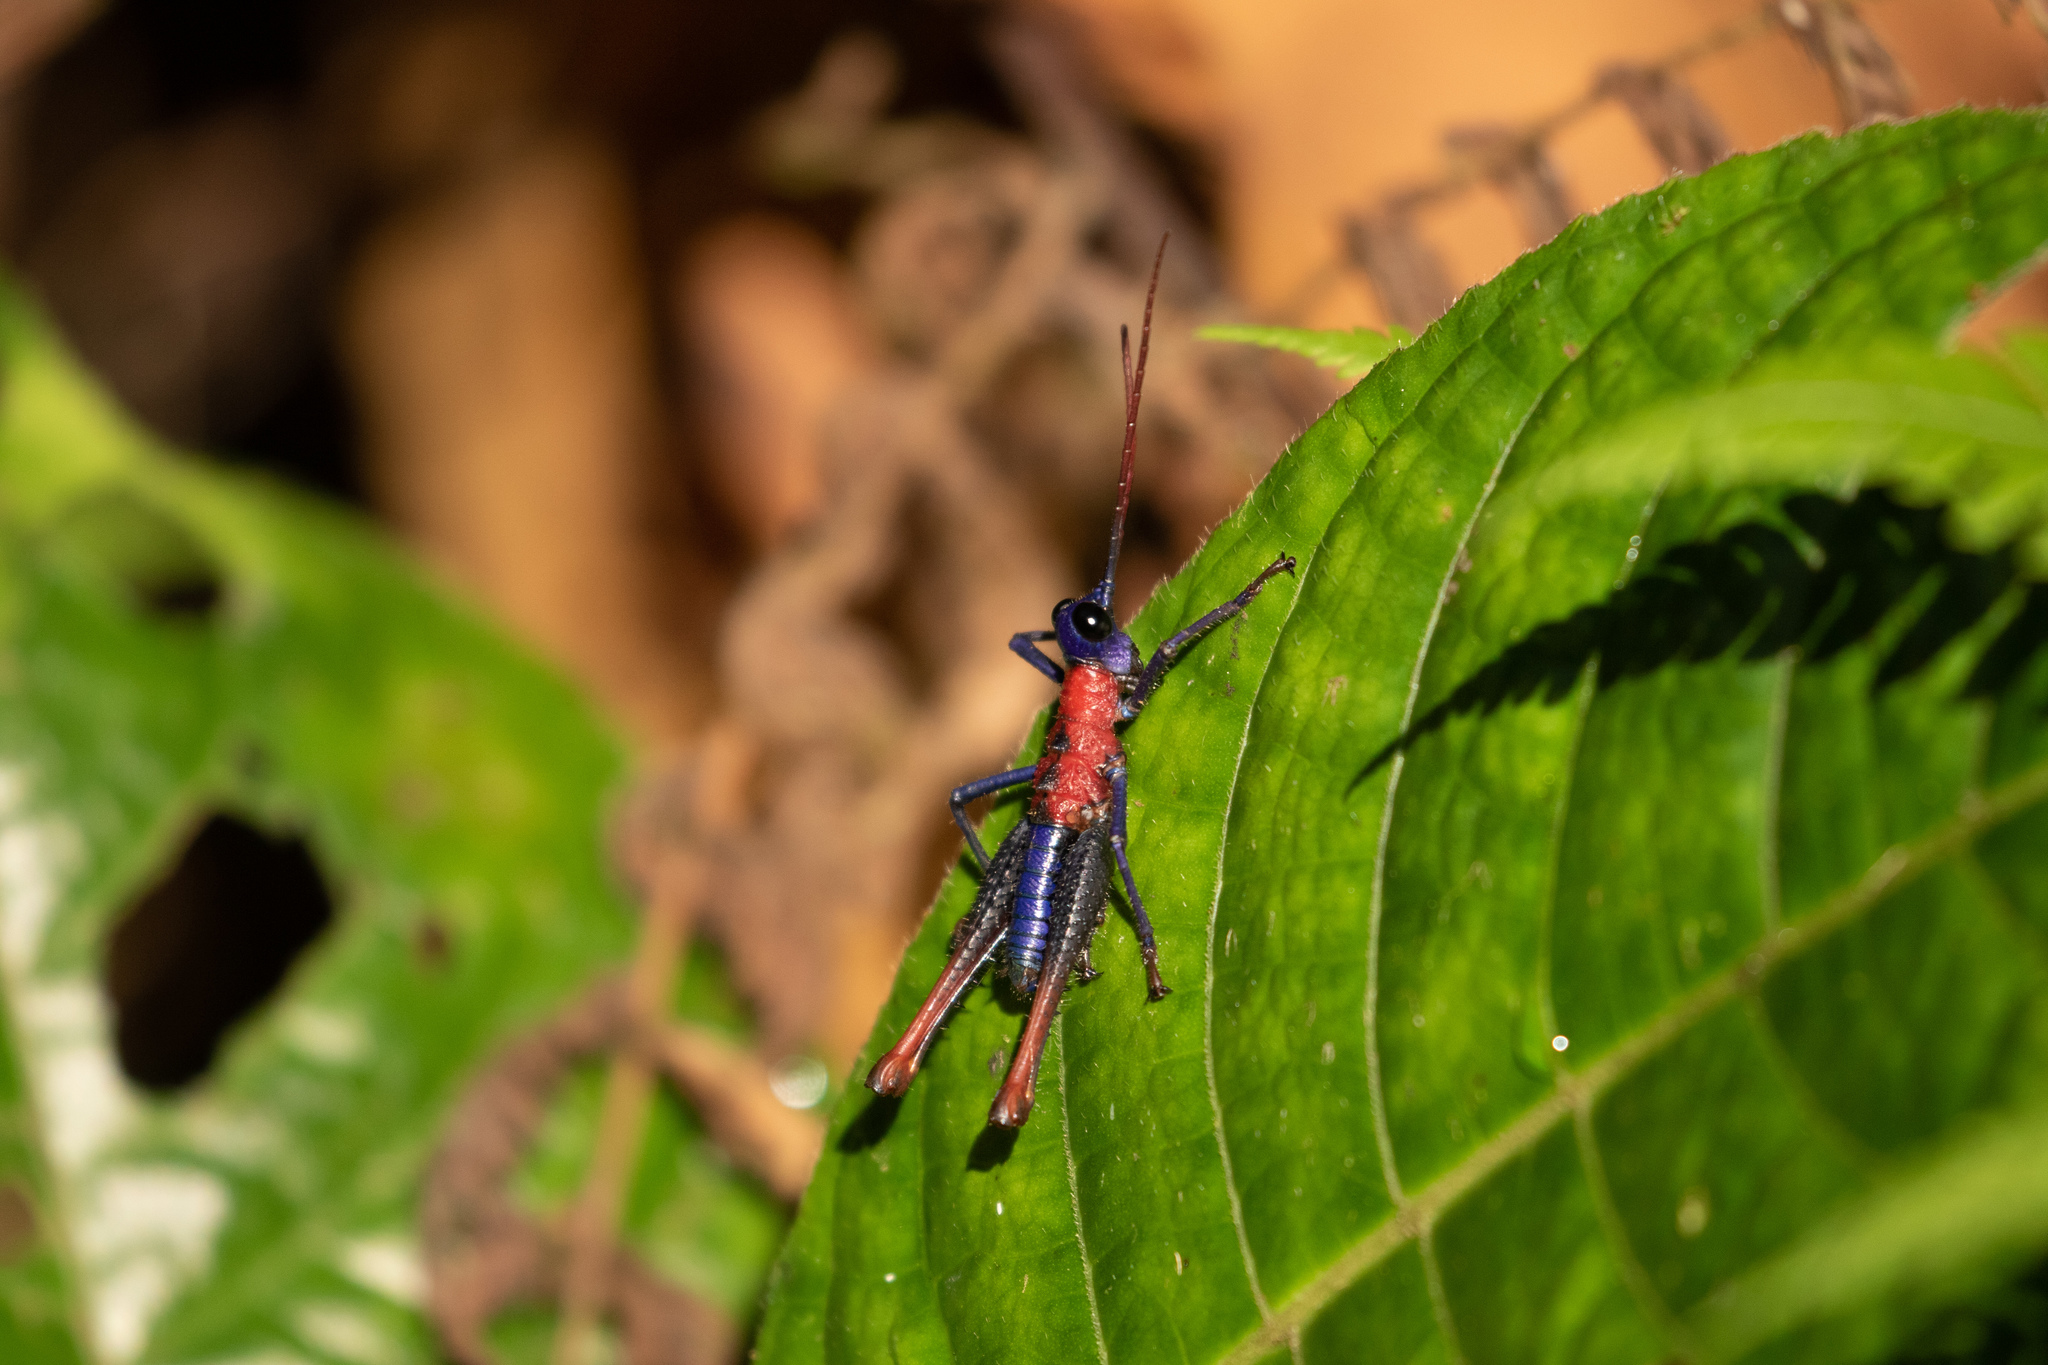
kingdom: Animalia
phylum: Arthropoda
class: Insecta
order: Orthoptera
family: Acrididae
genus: Opaon
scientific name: Opaon varicolor
